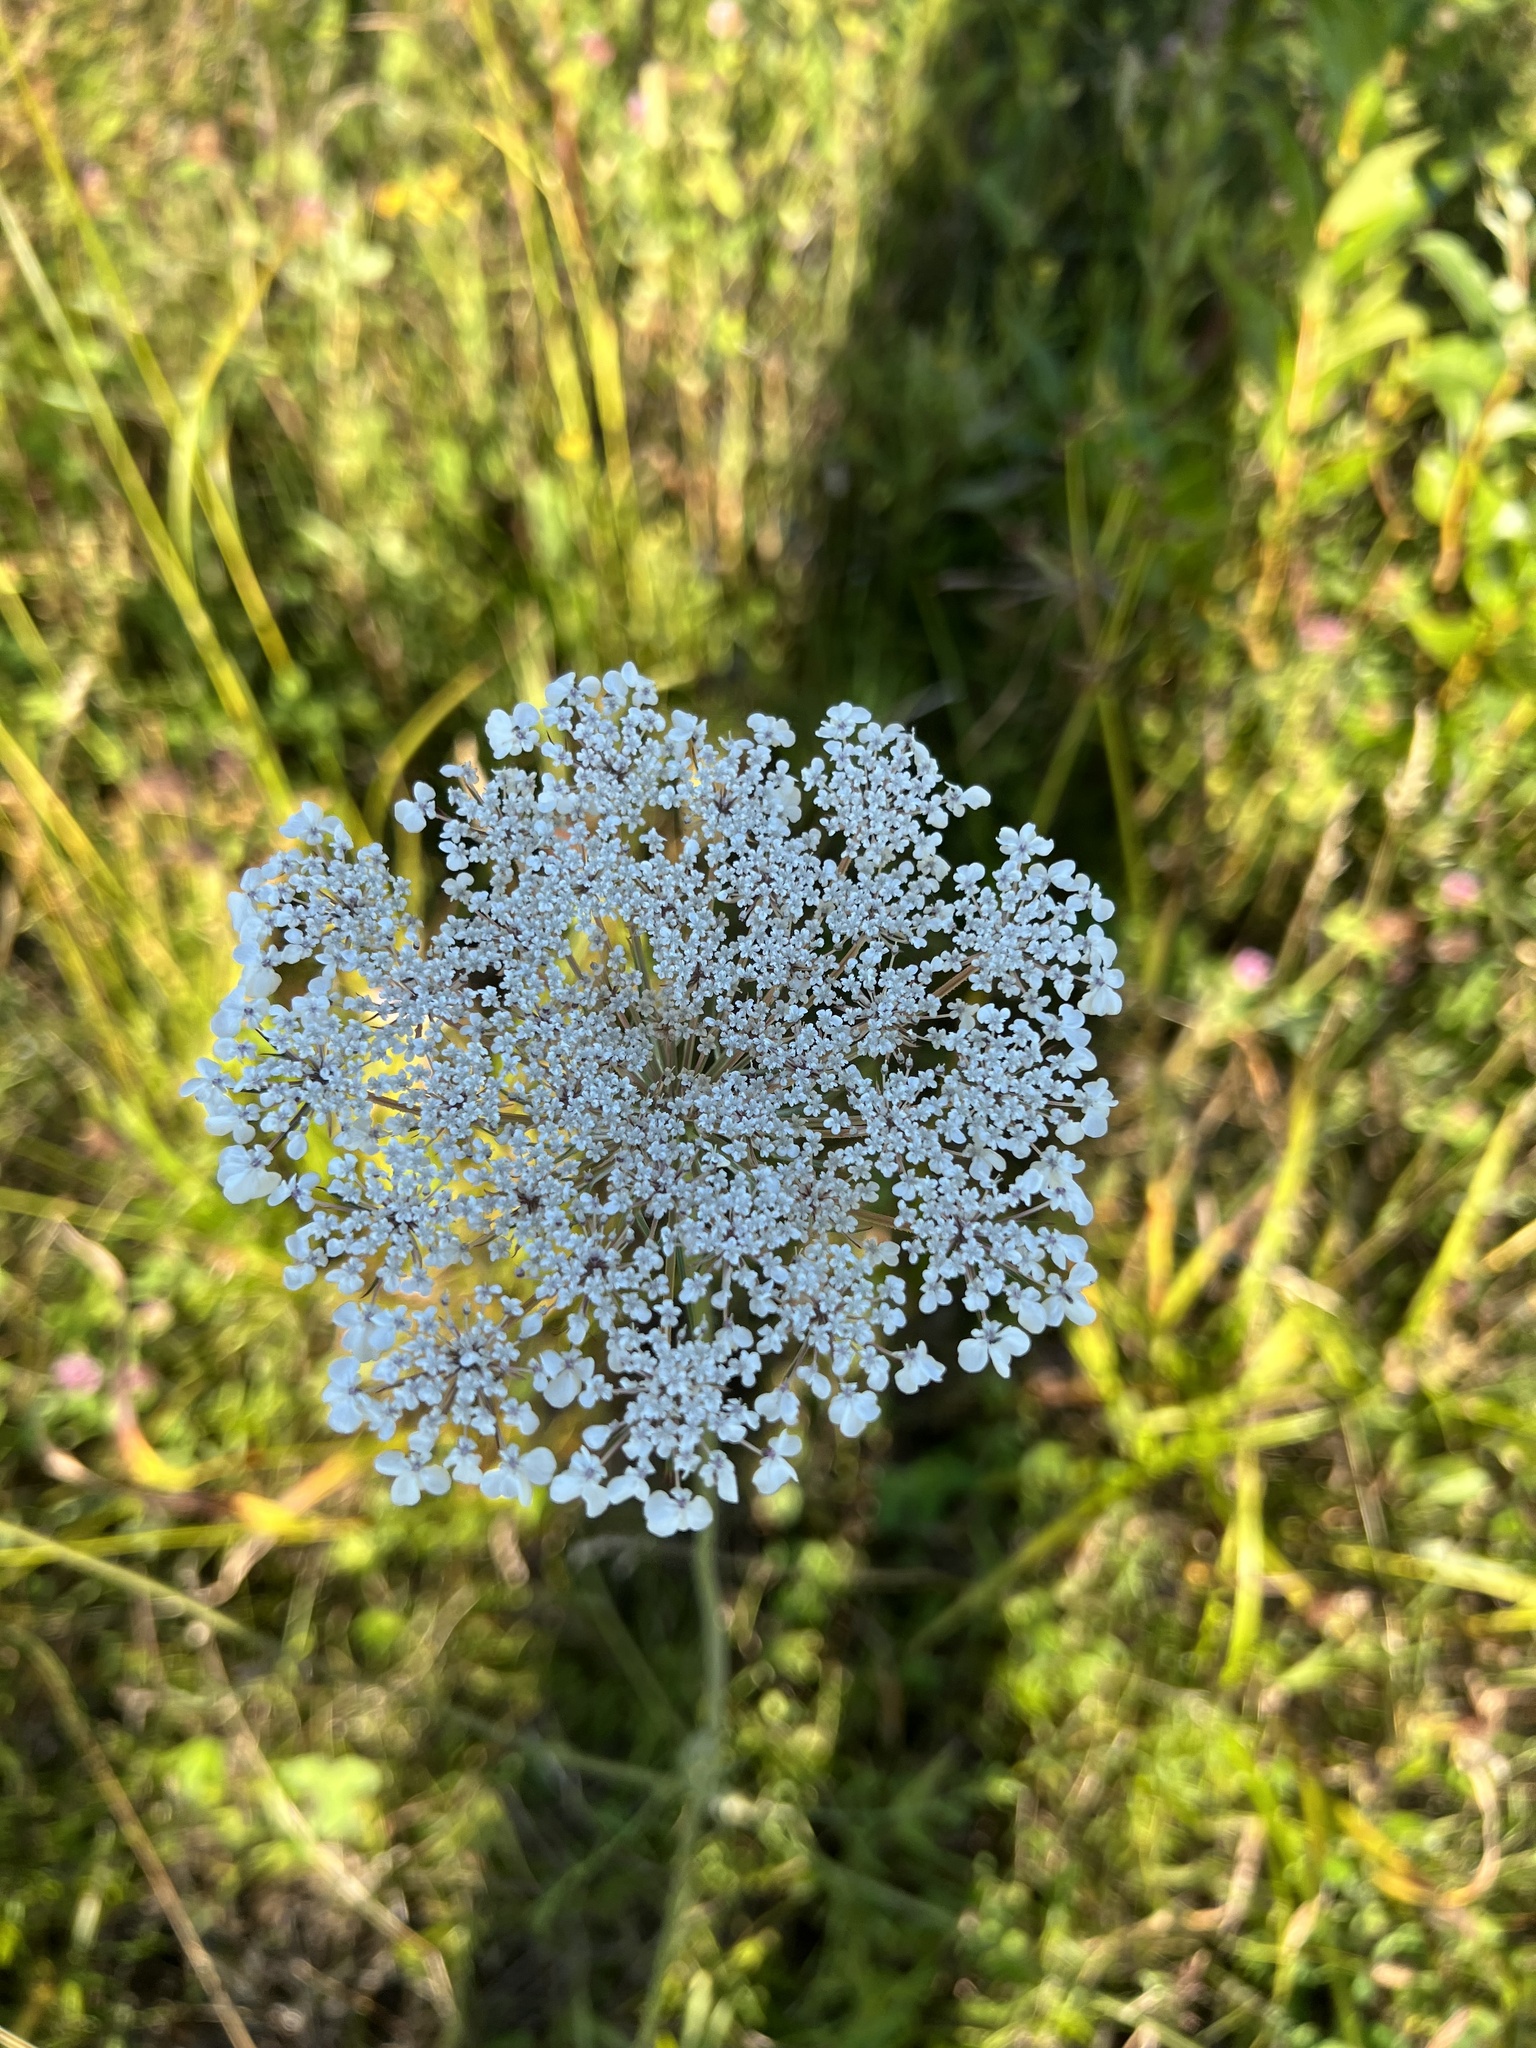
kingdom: Plantae
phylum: Tracheophyta
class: Magnoliopsida
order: Apiales
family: Apiaceae
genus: Daucus
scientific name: Daucus carota
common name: Wild carrot
